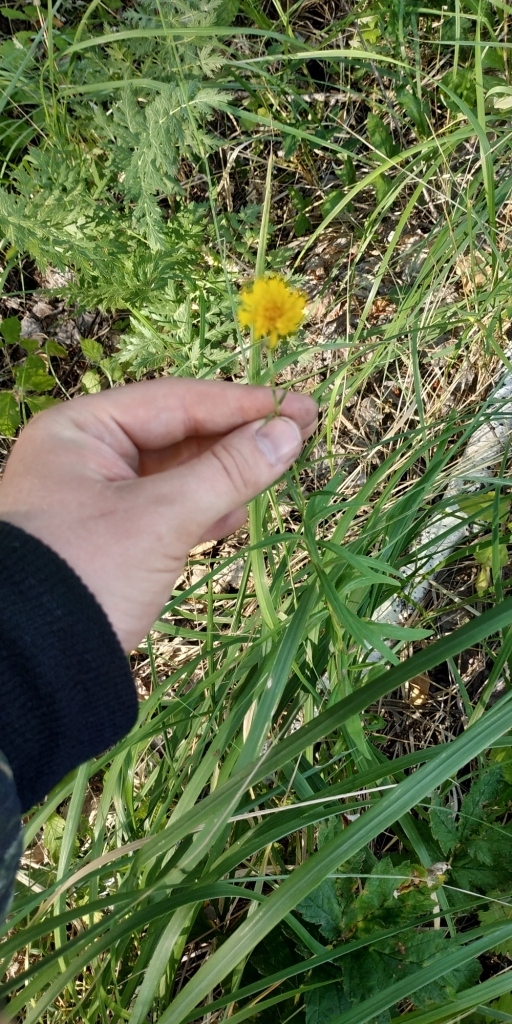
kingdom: Plantae
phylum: Tracheophyta
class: Magnoliopsida
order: Asterales
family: Asteraceae
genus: Hieracium
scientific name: Hieracium umbellatum
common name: Northern hawkweed
